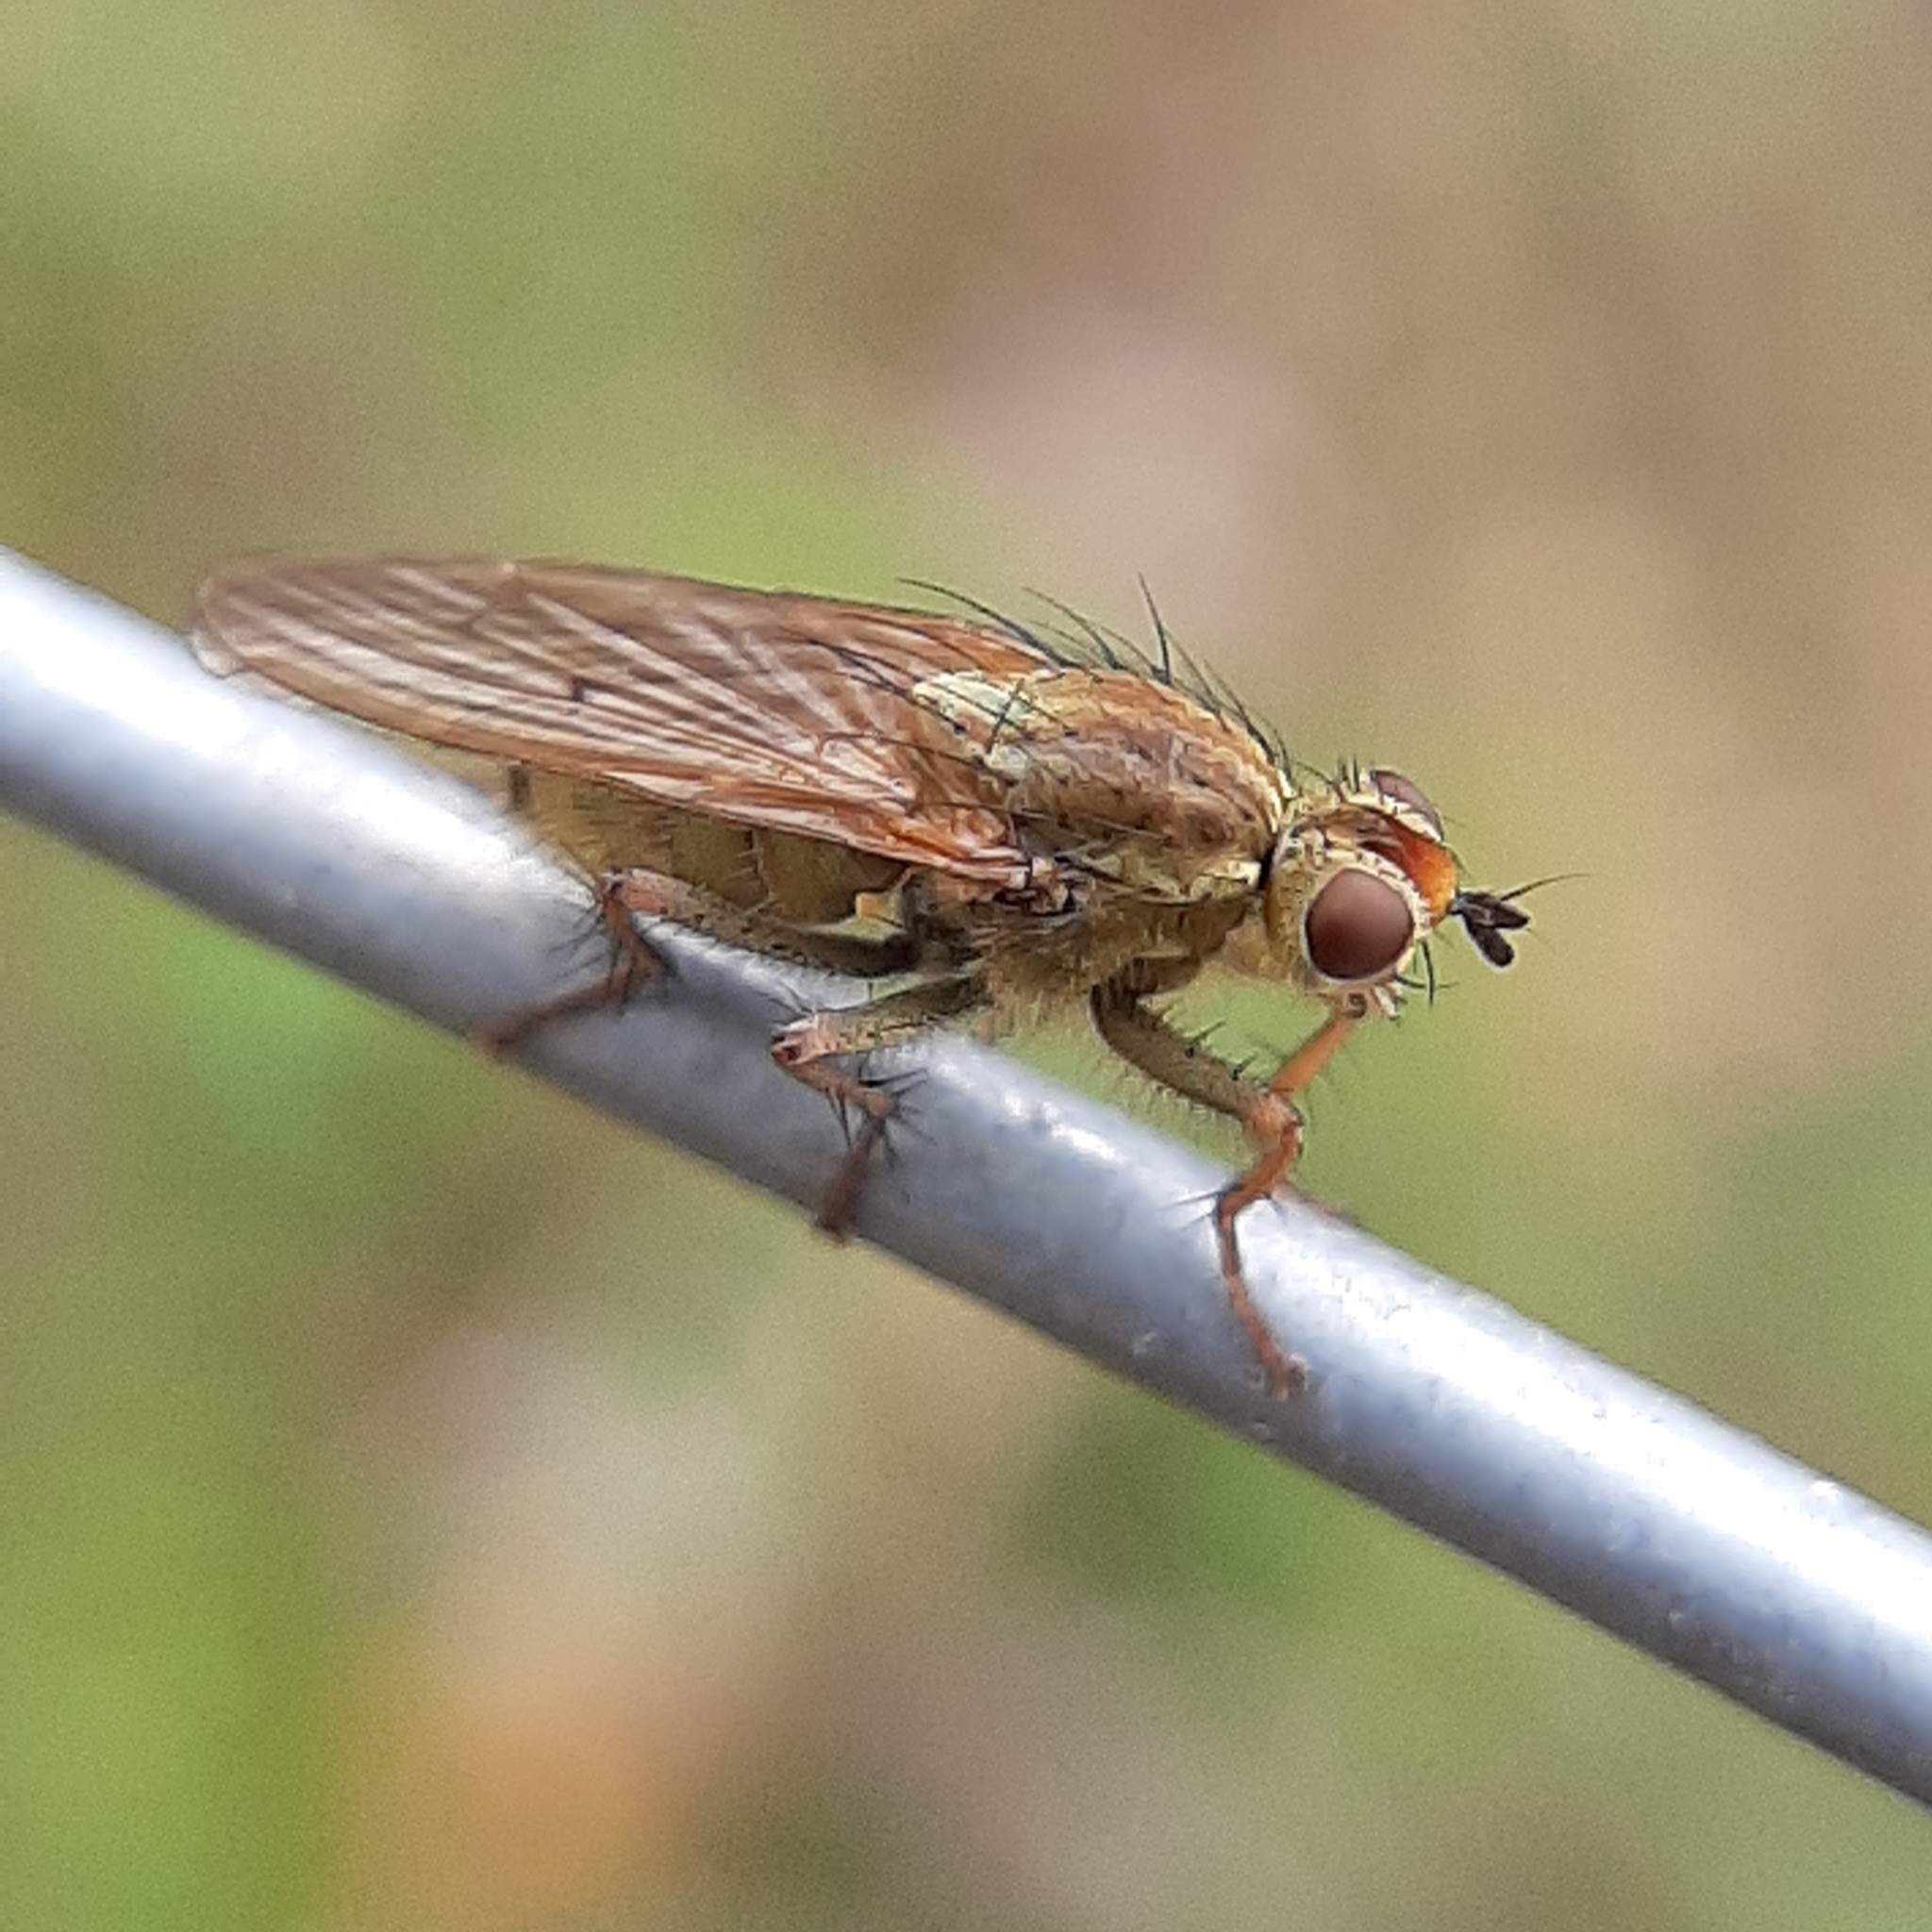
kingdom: Animalia
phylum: Arthropoda
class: Insecta
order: Diptera
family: Scathophagidae
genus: Scathophaga
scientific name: Scathophaga furcata
